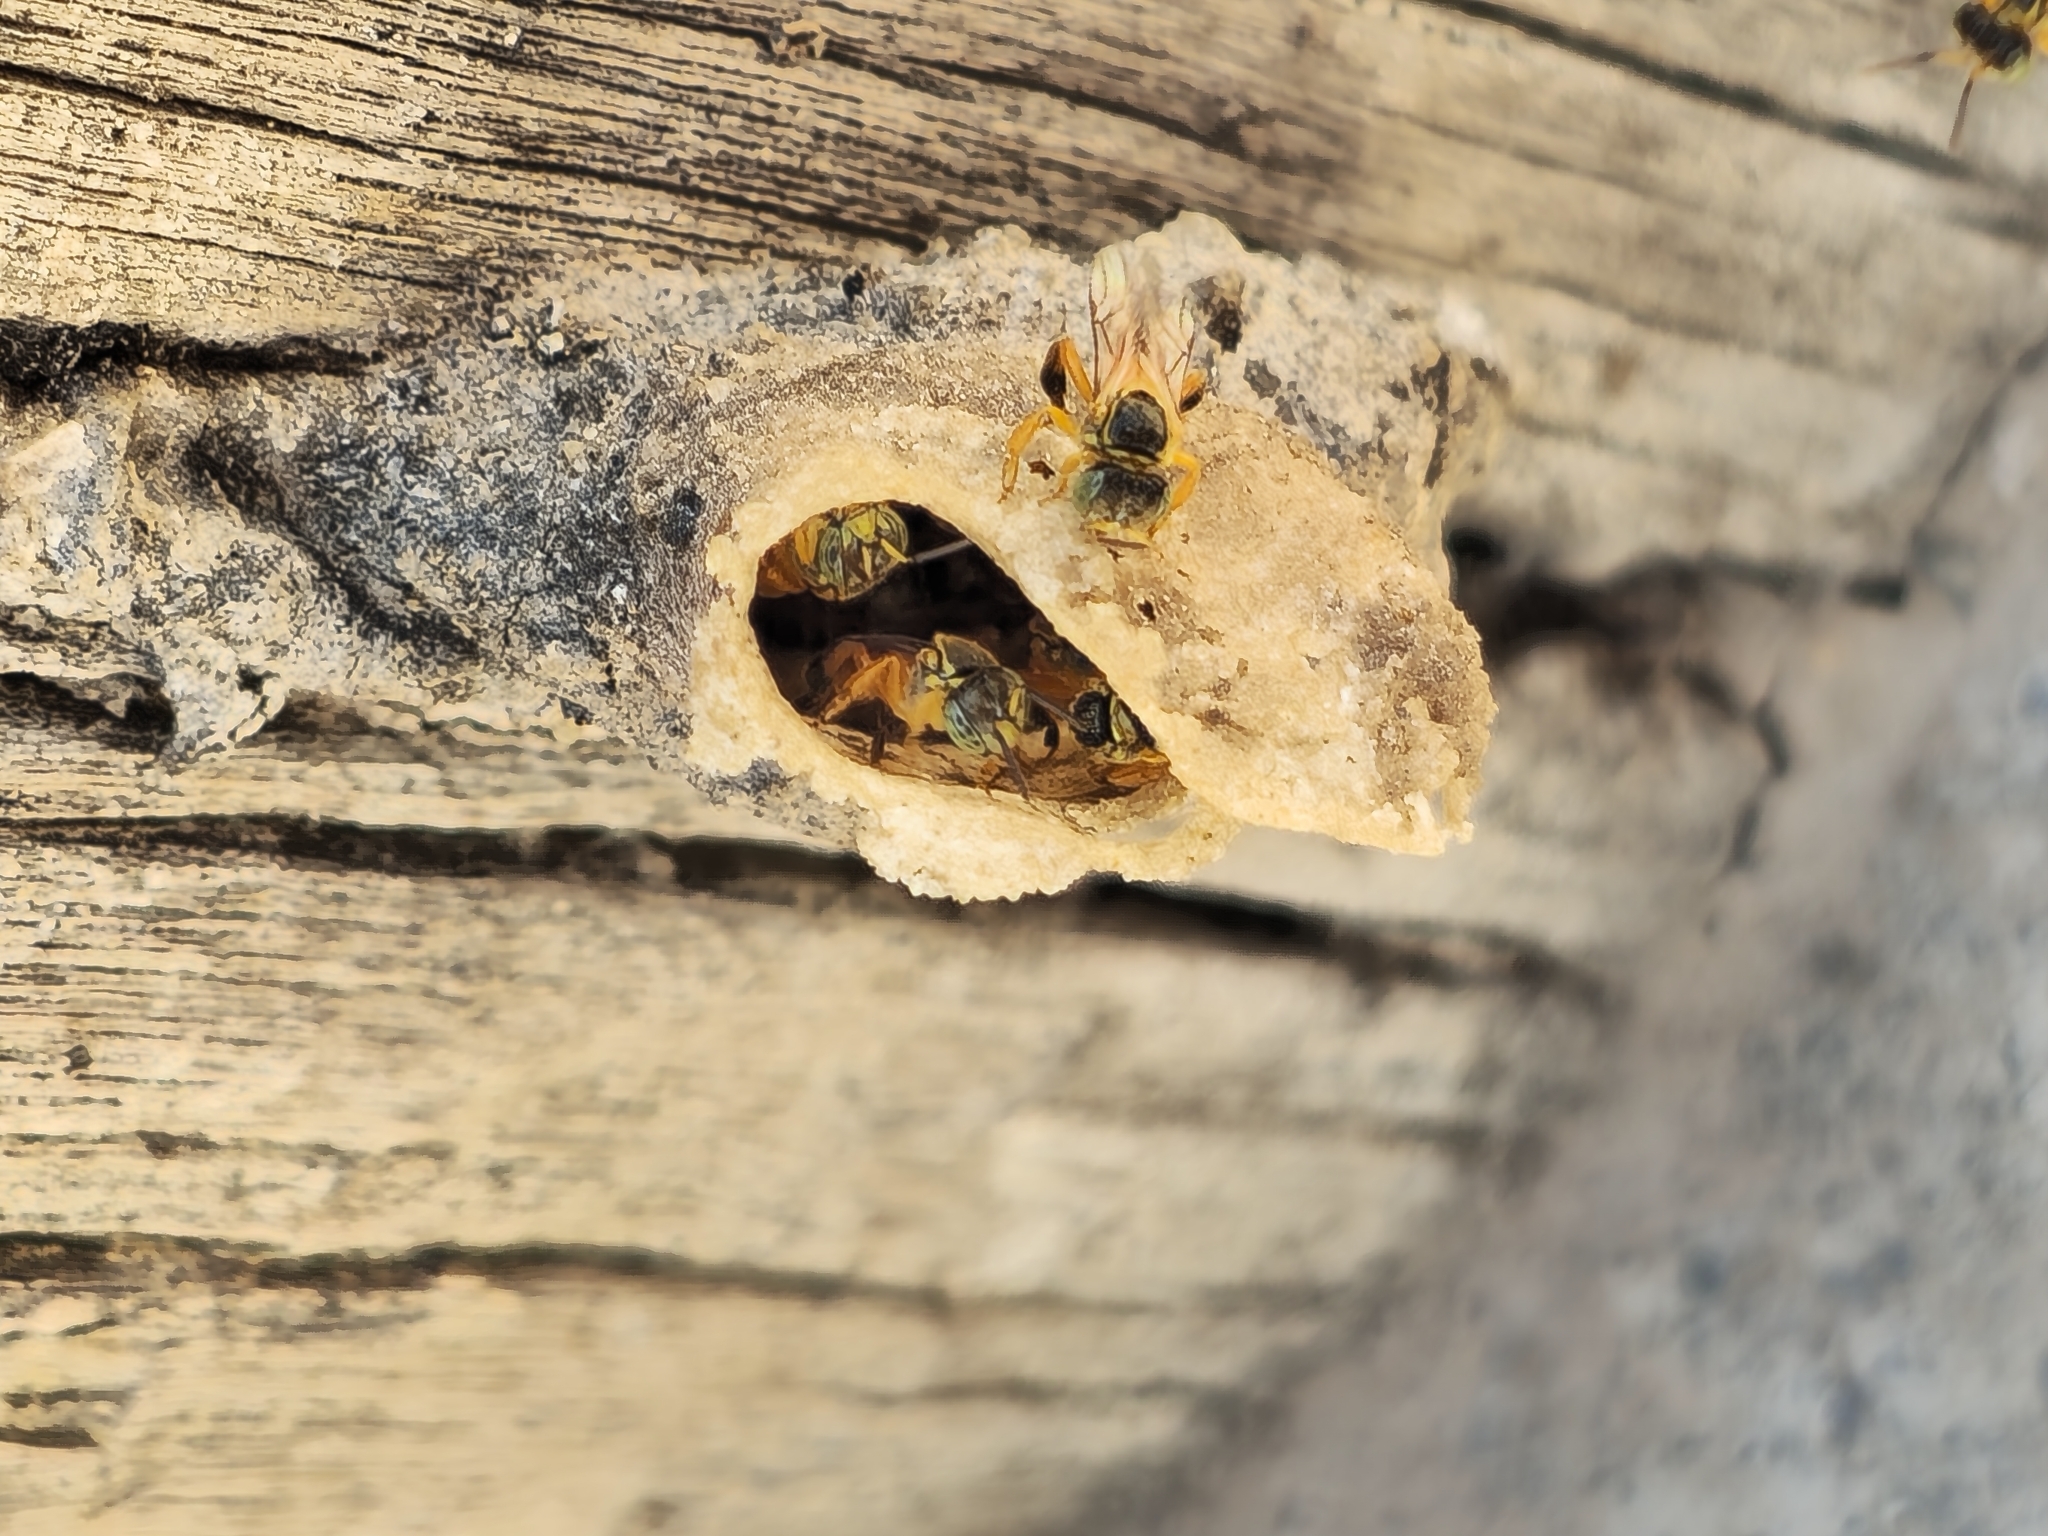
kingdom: Animalia
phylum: Arthropoda
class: Insecta
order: Hymenoptera
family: Apidae
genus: Tetragonisca
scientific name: Tetragonisca fiebrigi
